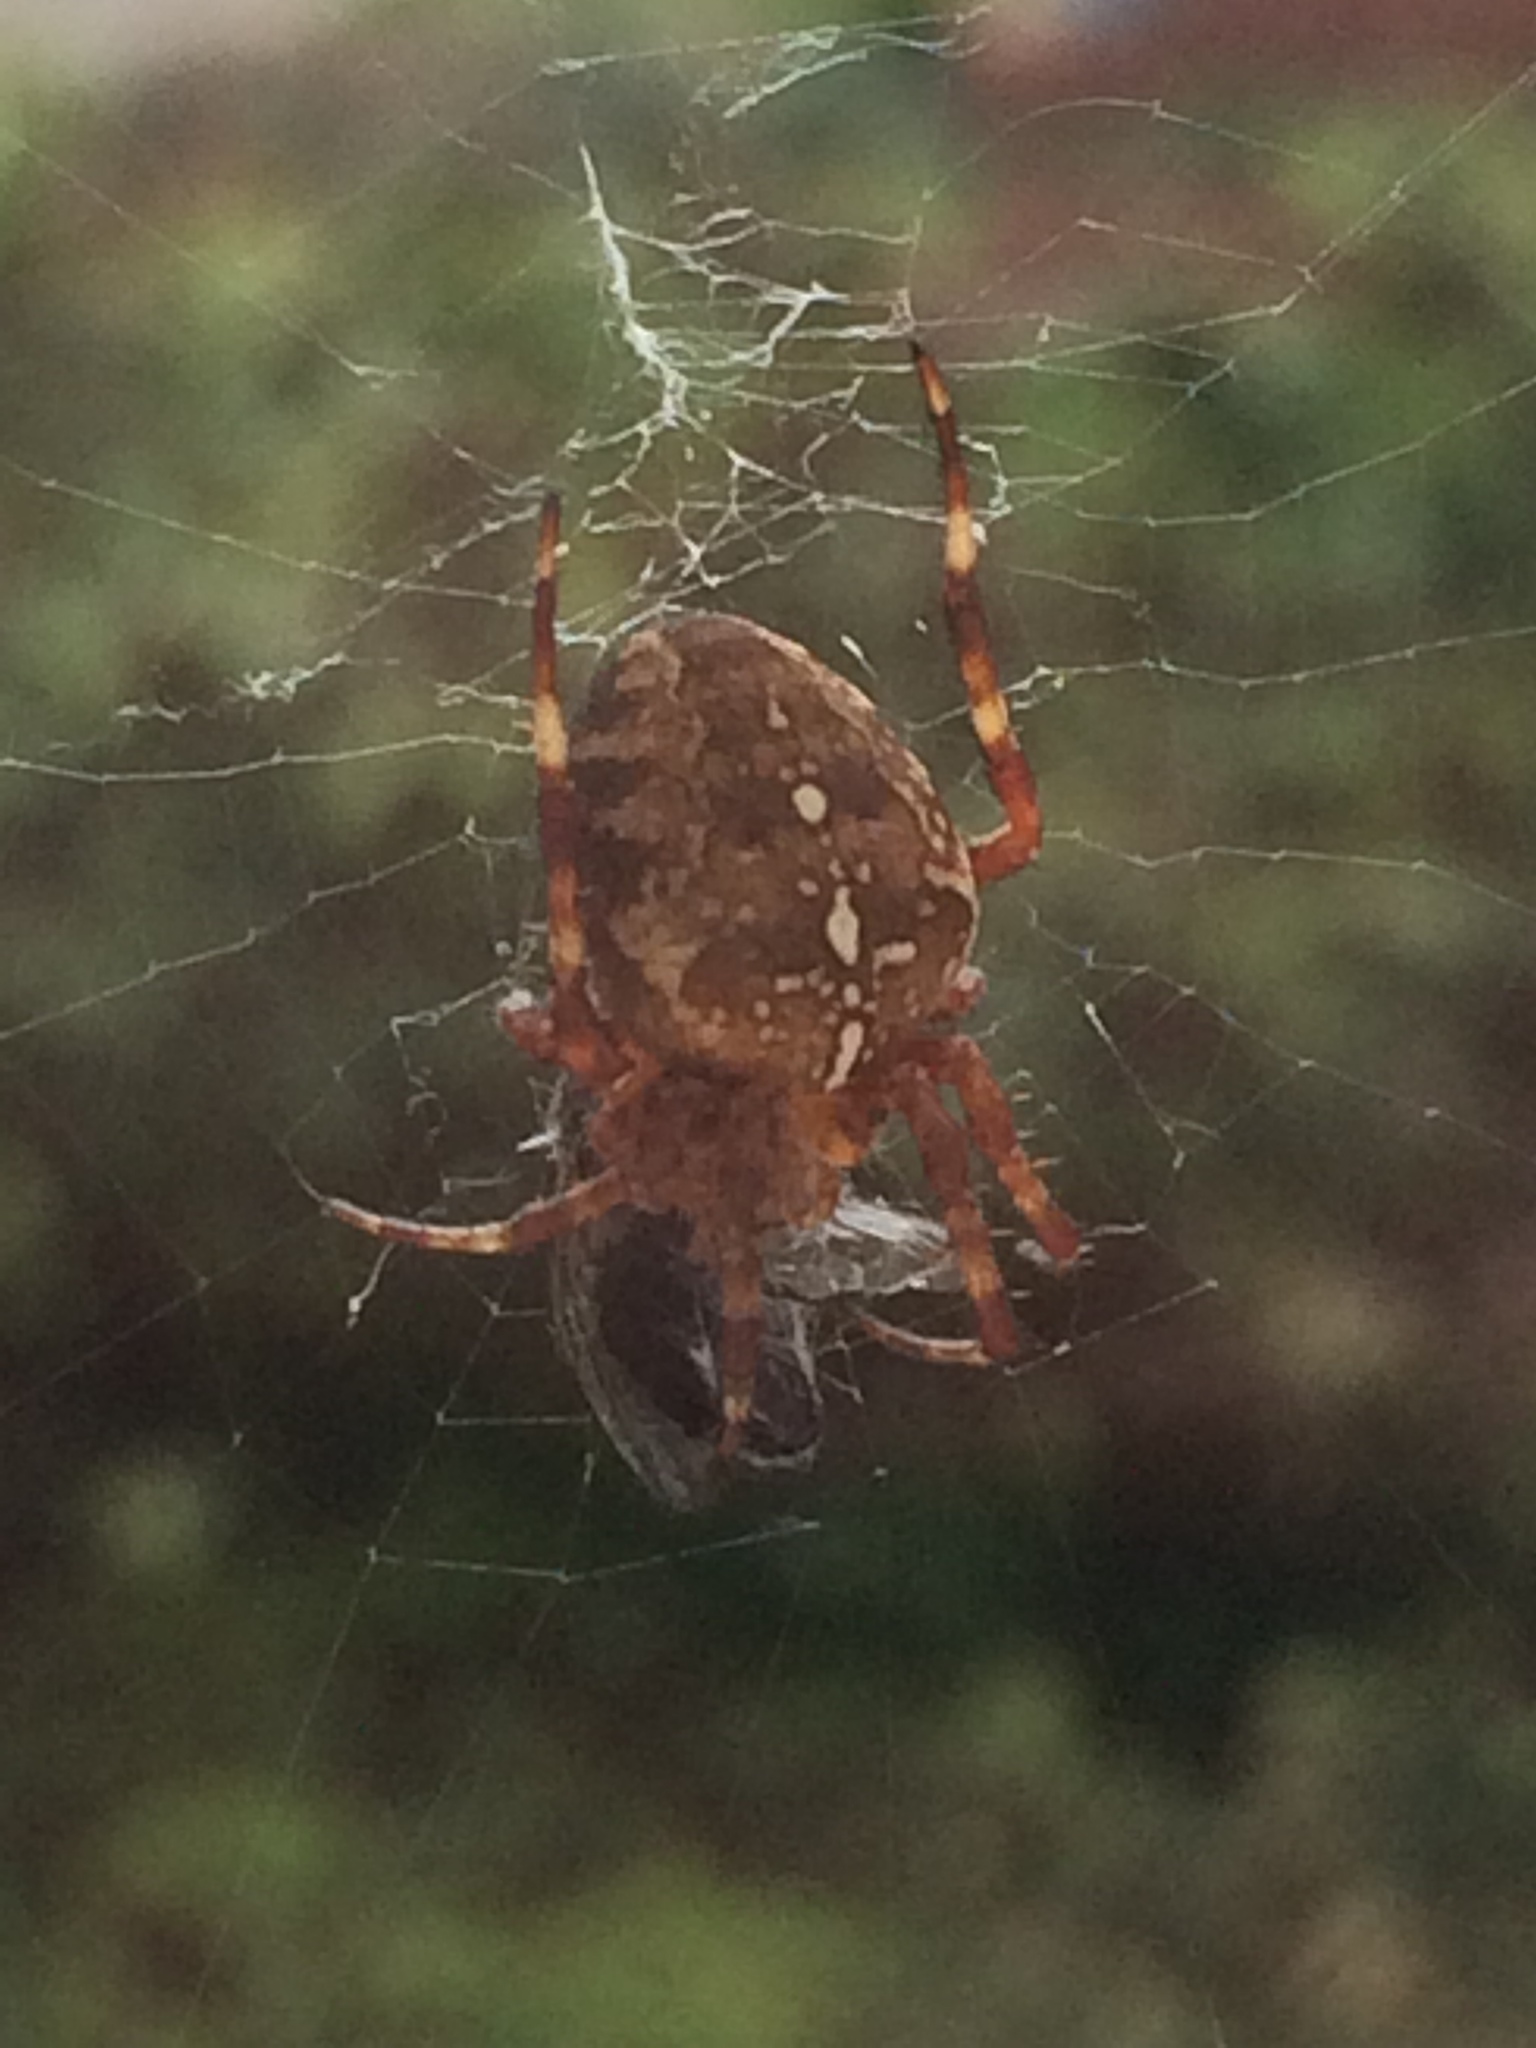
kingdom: Animalia
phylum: Arthropoda
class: Arachnida
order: Araneae
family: Araneidae
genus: Araneus
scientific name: Araneus diadematus
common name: Cross orbweaver
